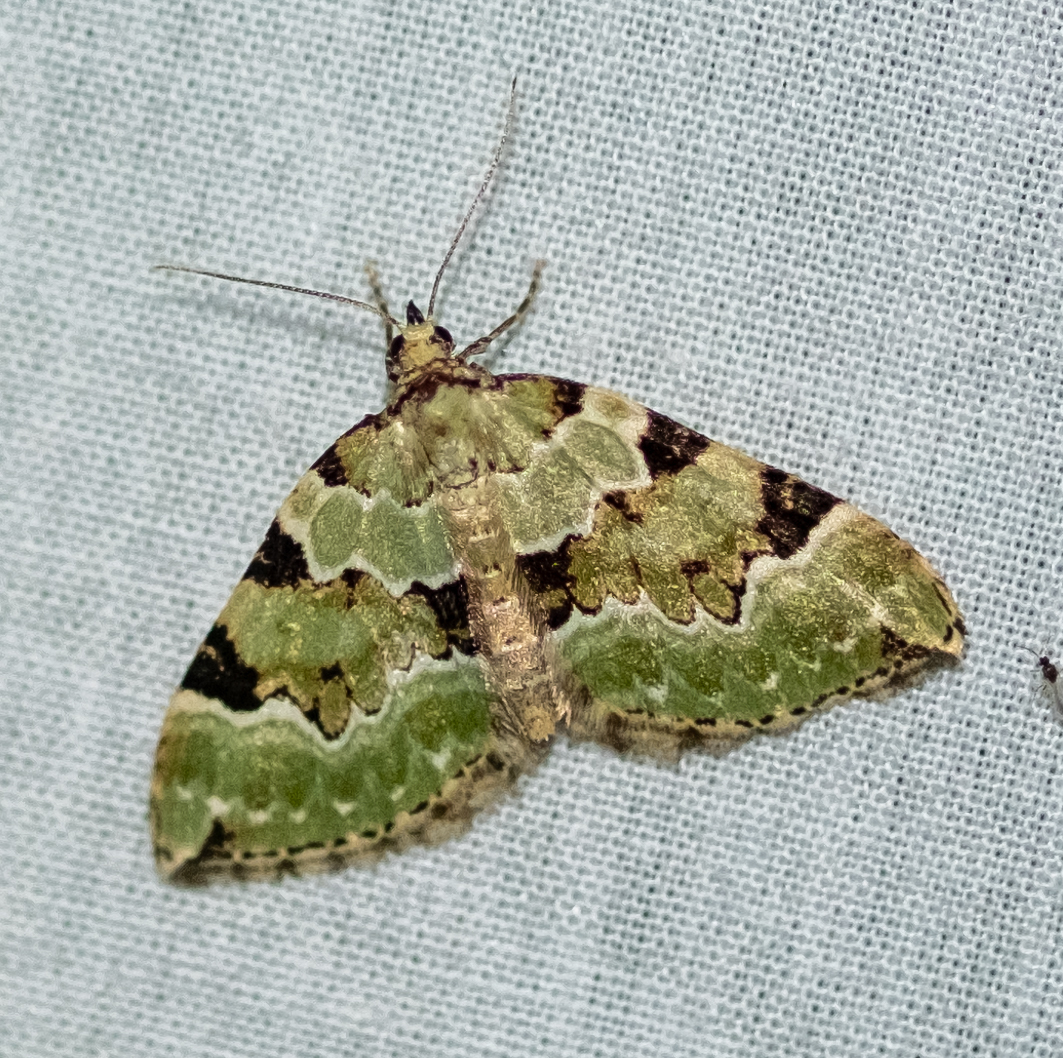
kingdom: Animalia
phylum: Arthropoda
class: Insecta
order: Lepidoptera
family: Geometridae
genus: Colostygia
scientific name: Colostygia pectinataria
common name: Green carpet
